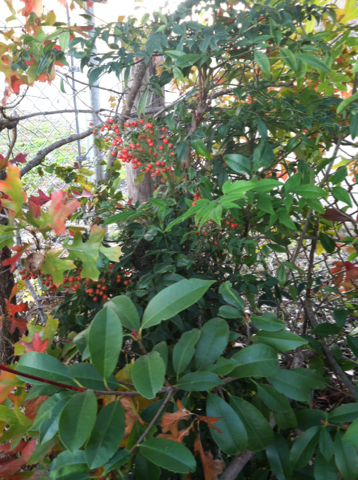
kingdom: Plantae
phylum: Tracheophyta
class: Magnoliopsida
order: Ranunculales
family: Berberidaceae
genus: Nandina
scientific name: Nandina domestica
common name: Sacred bamboo
